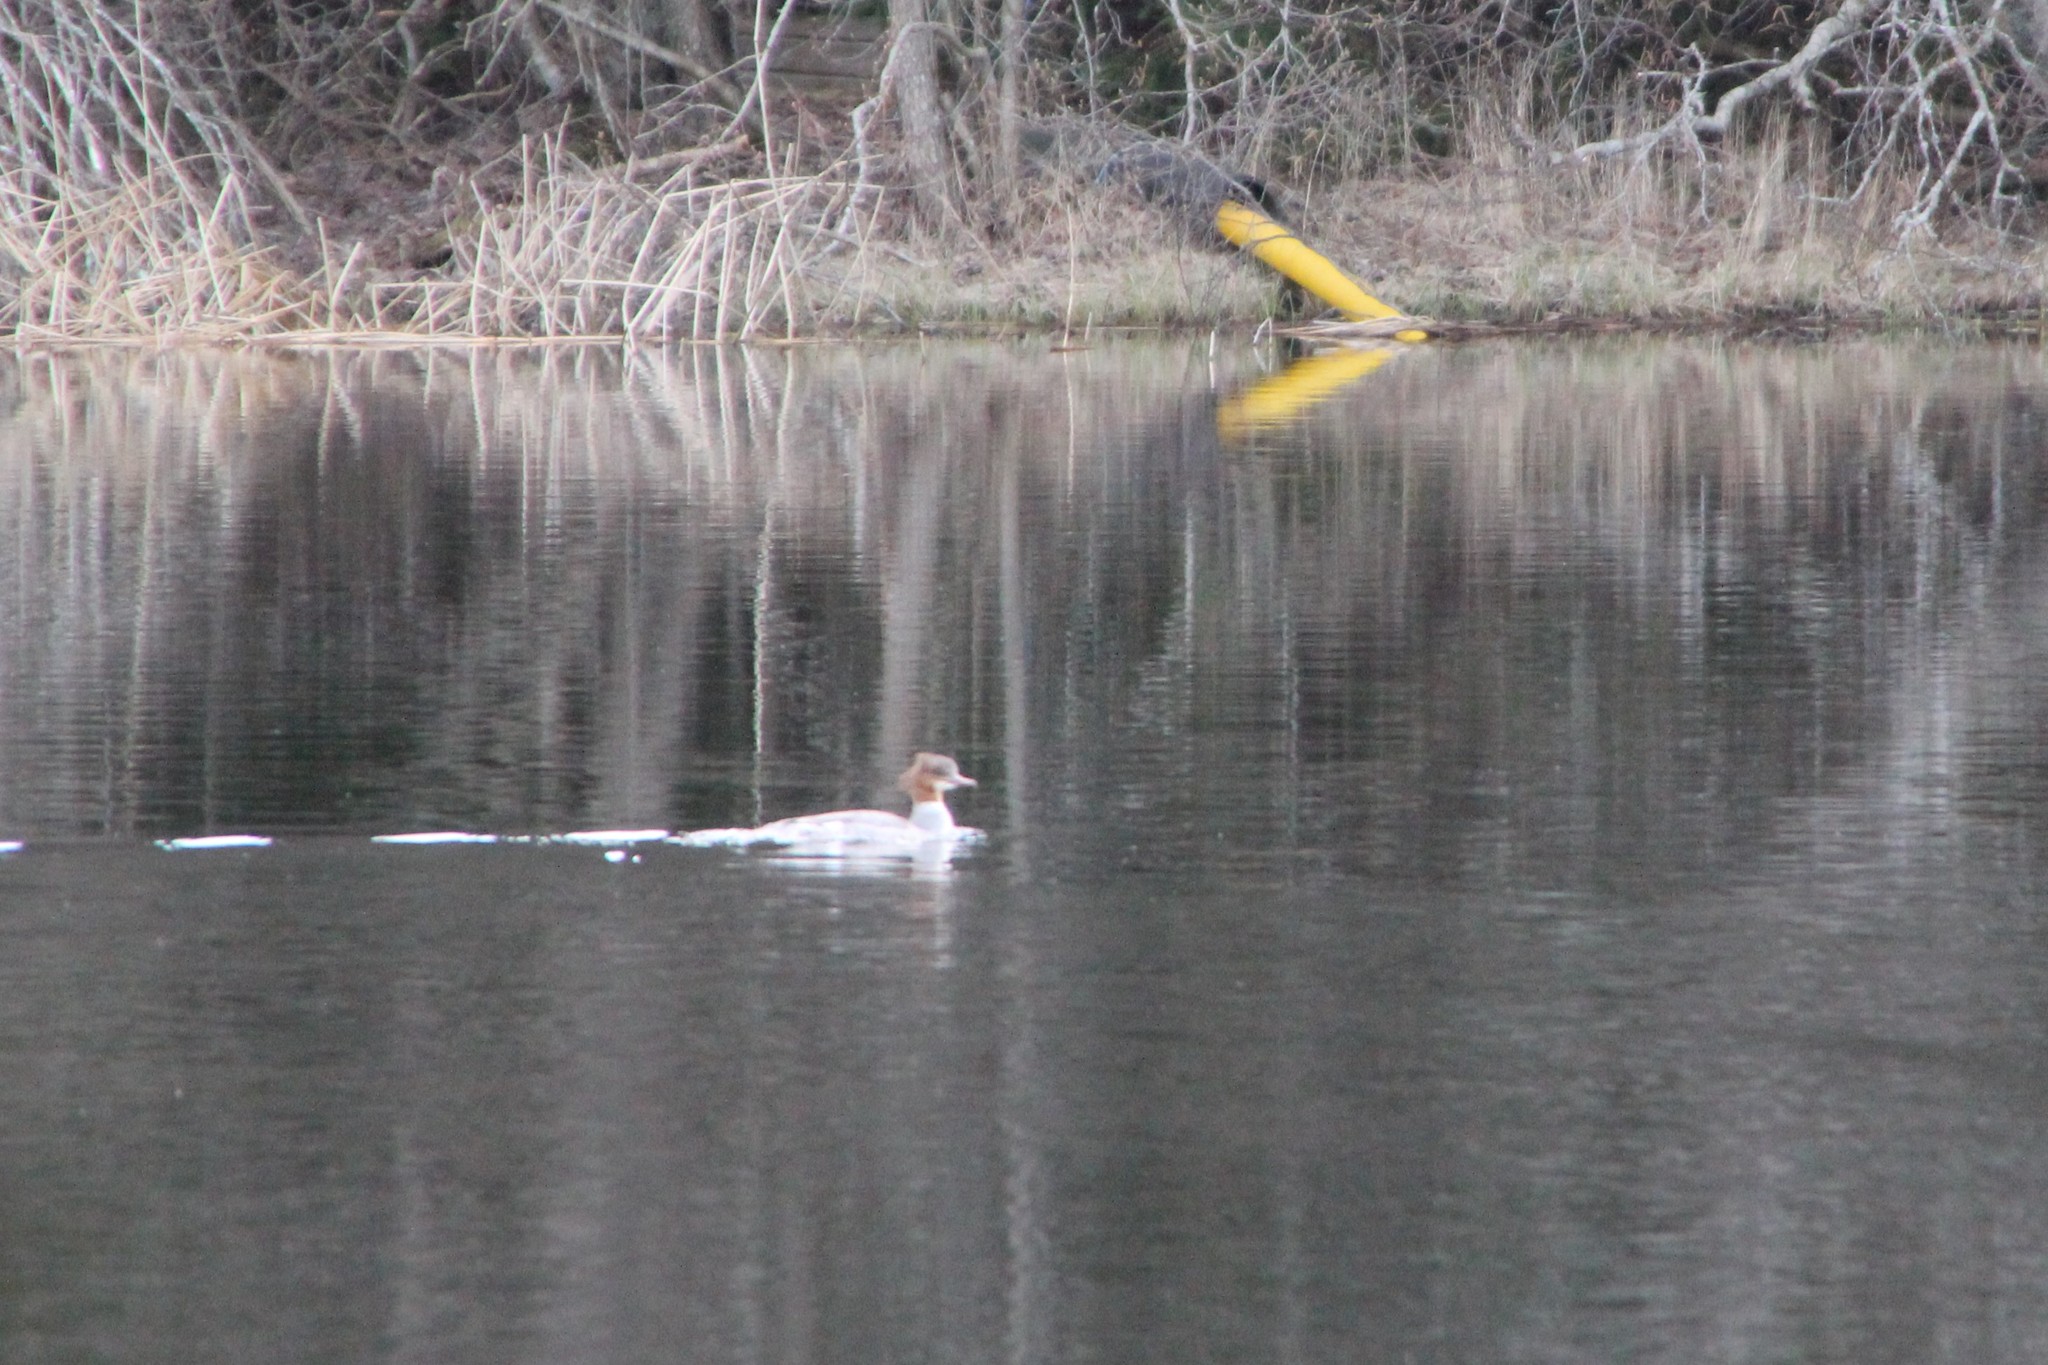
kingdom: Animalia
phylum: Chordata
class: Aves
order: Anseriformes
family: Anatidae
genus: Mergus
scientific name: Mergus merganser
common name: Common merganser
